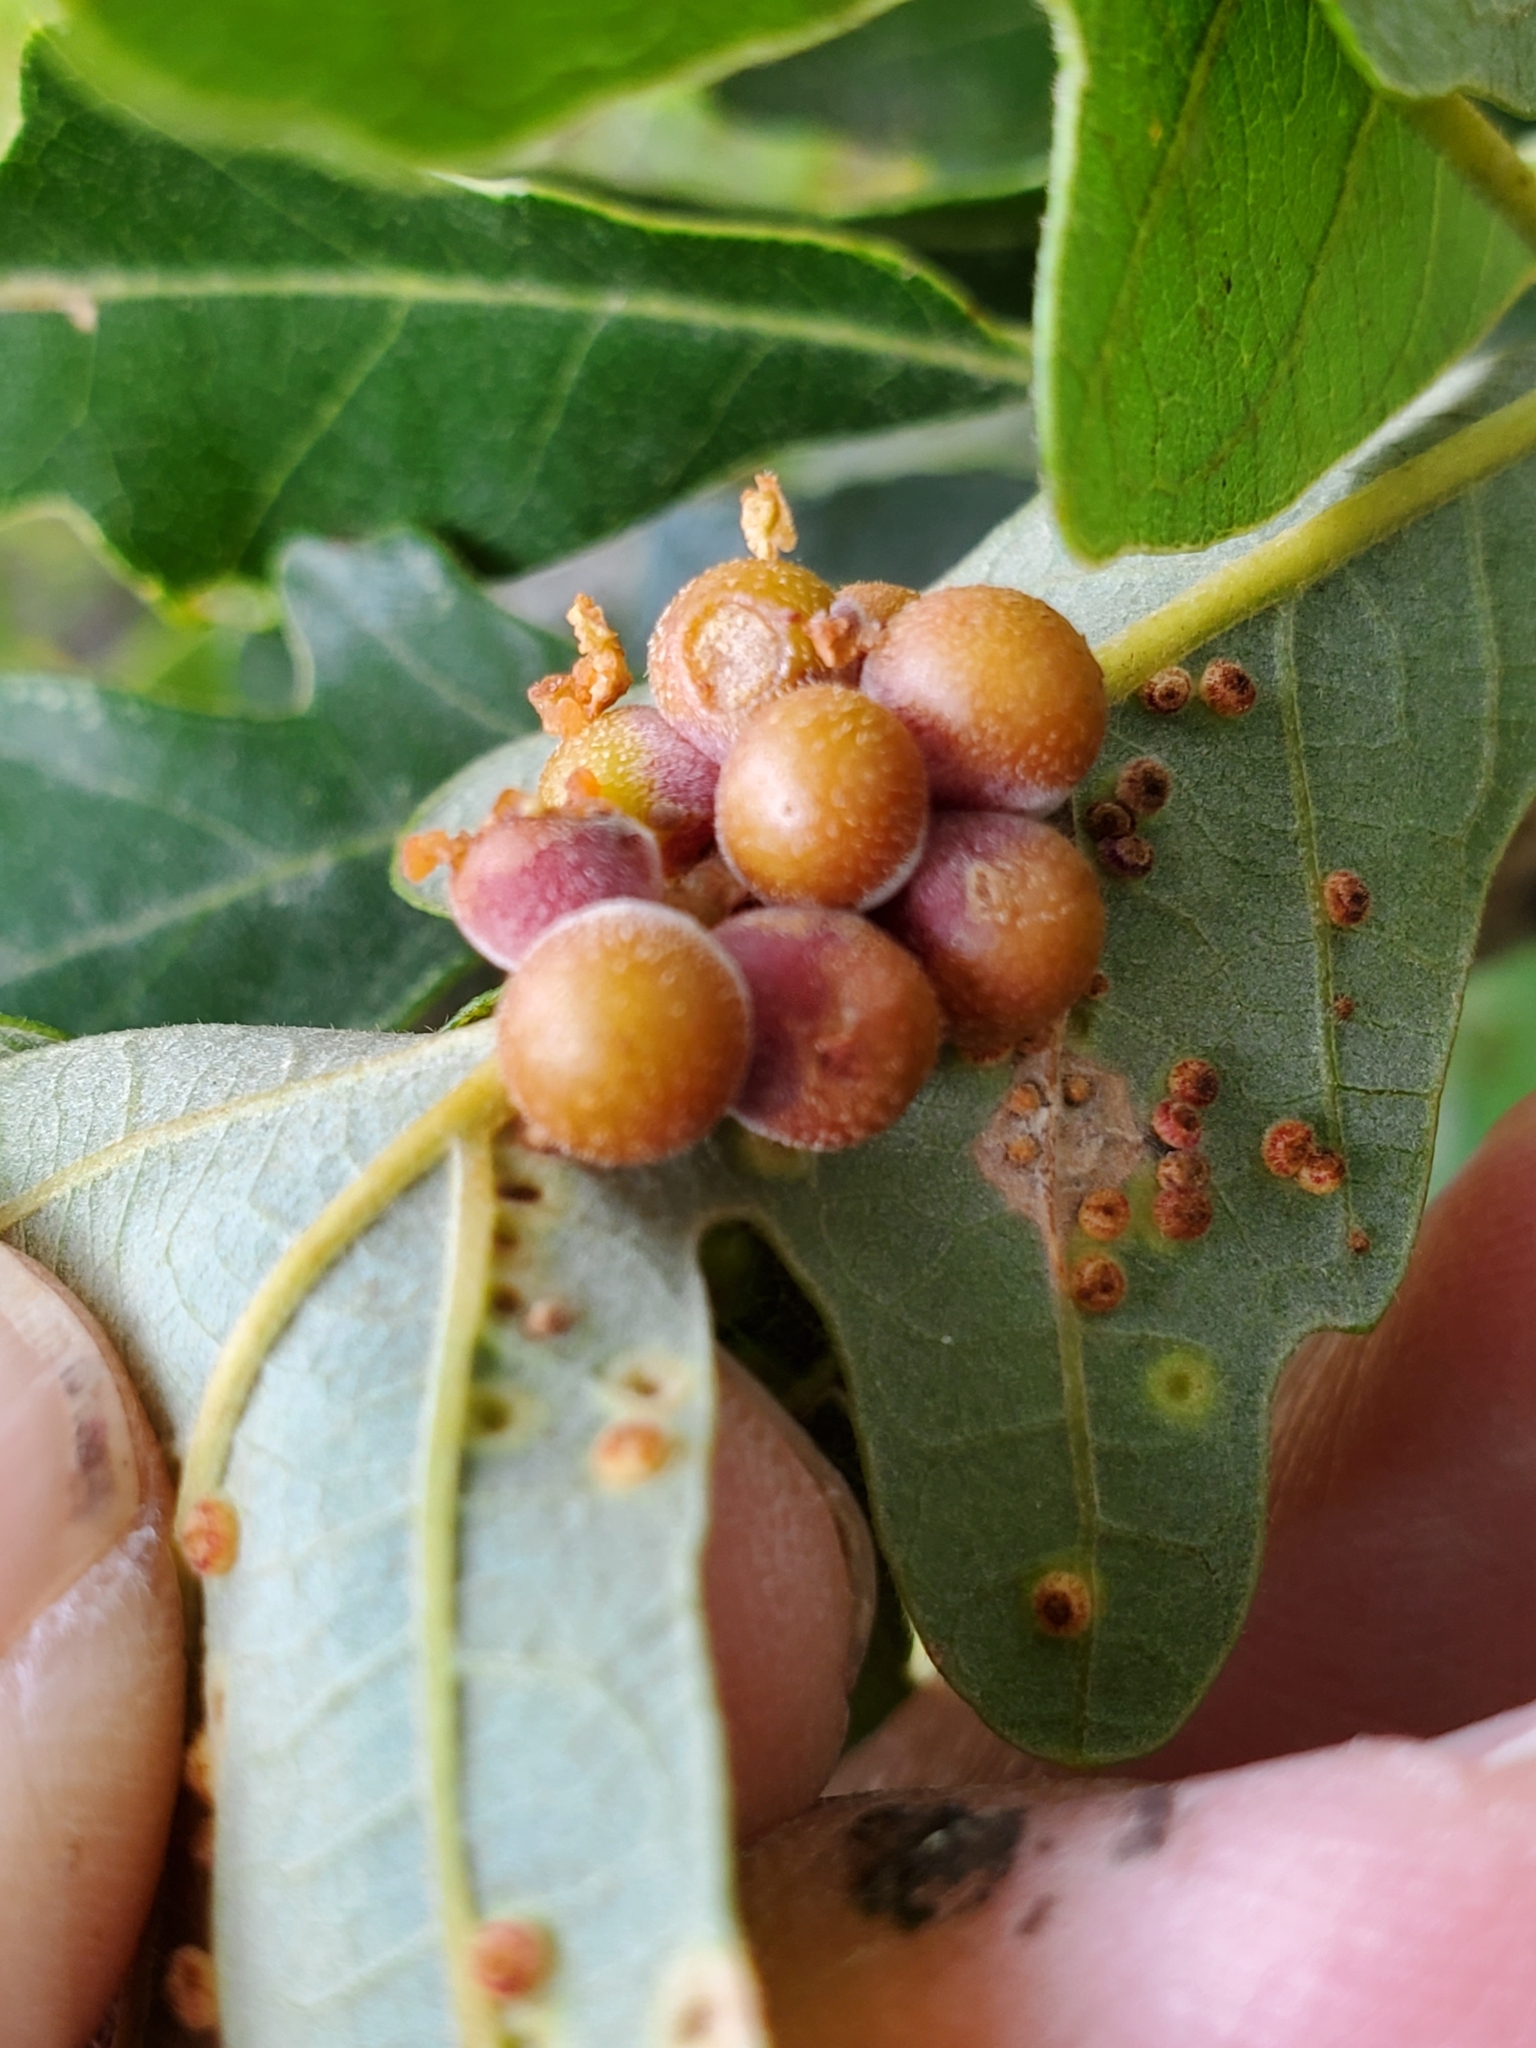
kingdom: Animalia
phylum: Arthropoda
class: Insecta
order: Hymenoptera
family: Cynipidae
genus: Andricus
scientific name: Andricus
